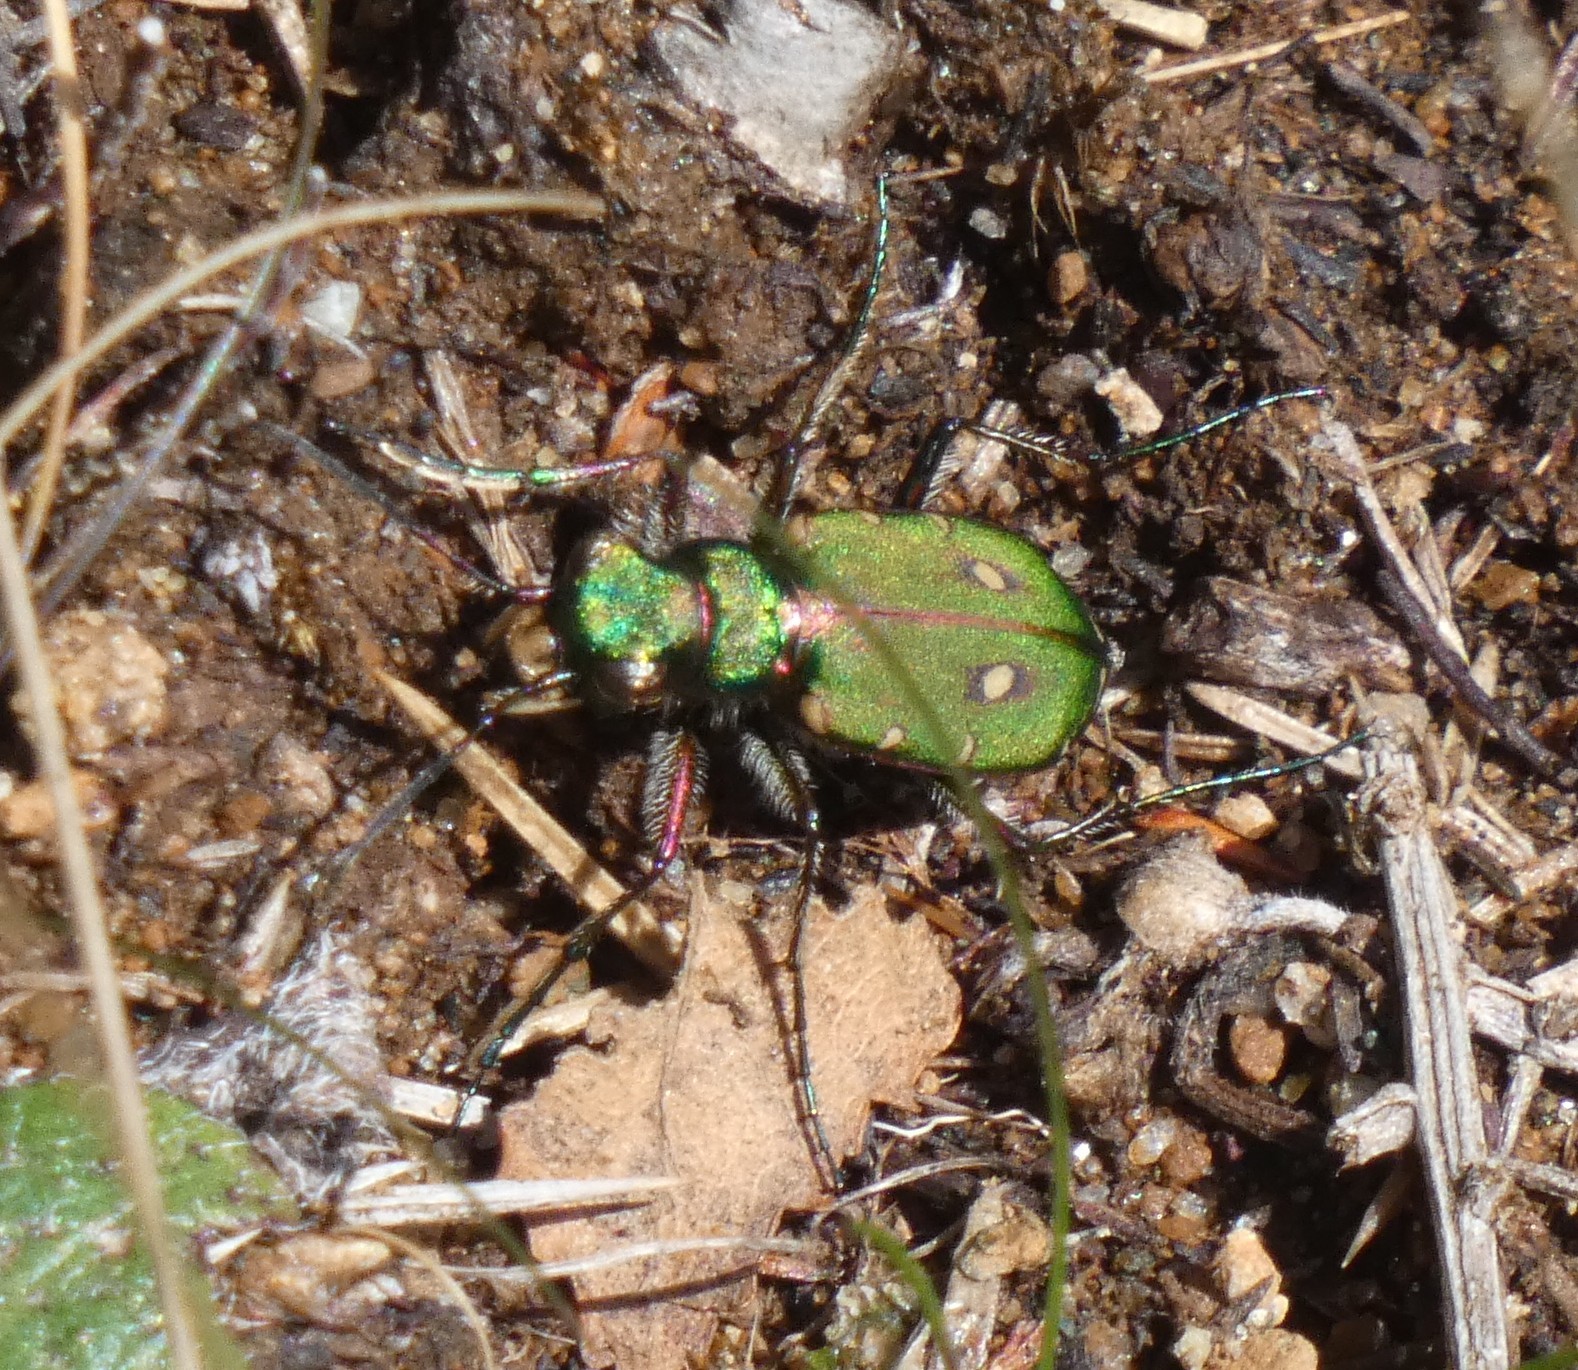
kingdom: Animalia
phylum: Arthropoda
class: Insecta
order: Coleoptera
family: Carabidae
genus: Cicindela
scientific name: Cicindela campestris
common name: Common tiger beetle
